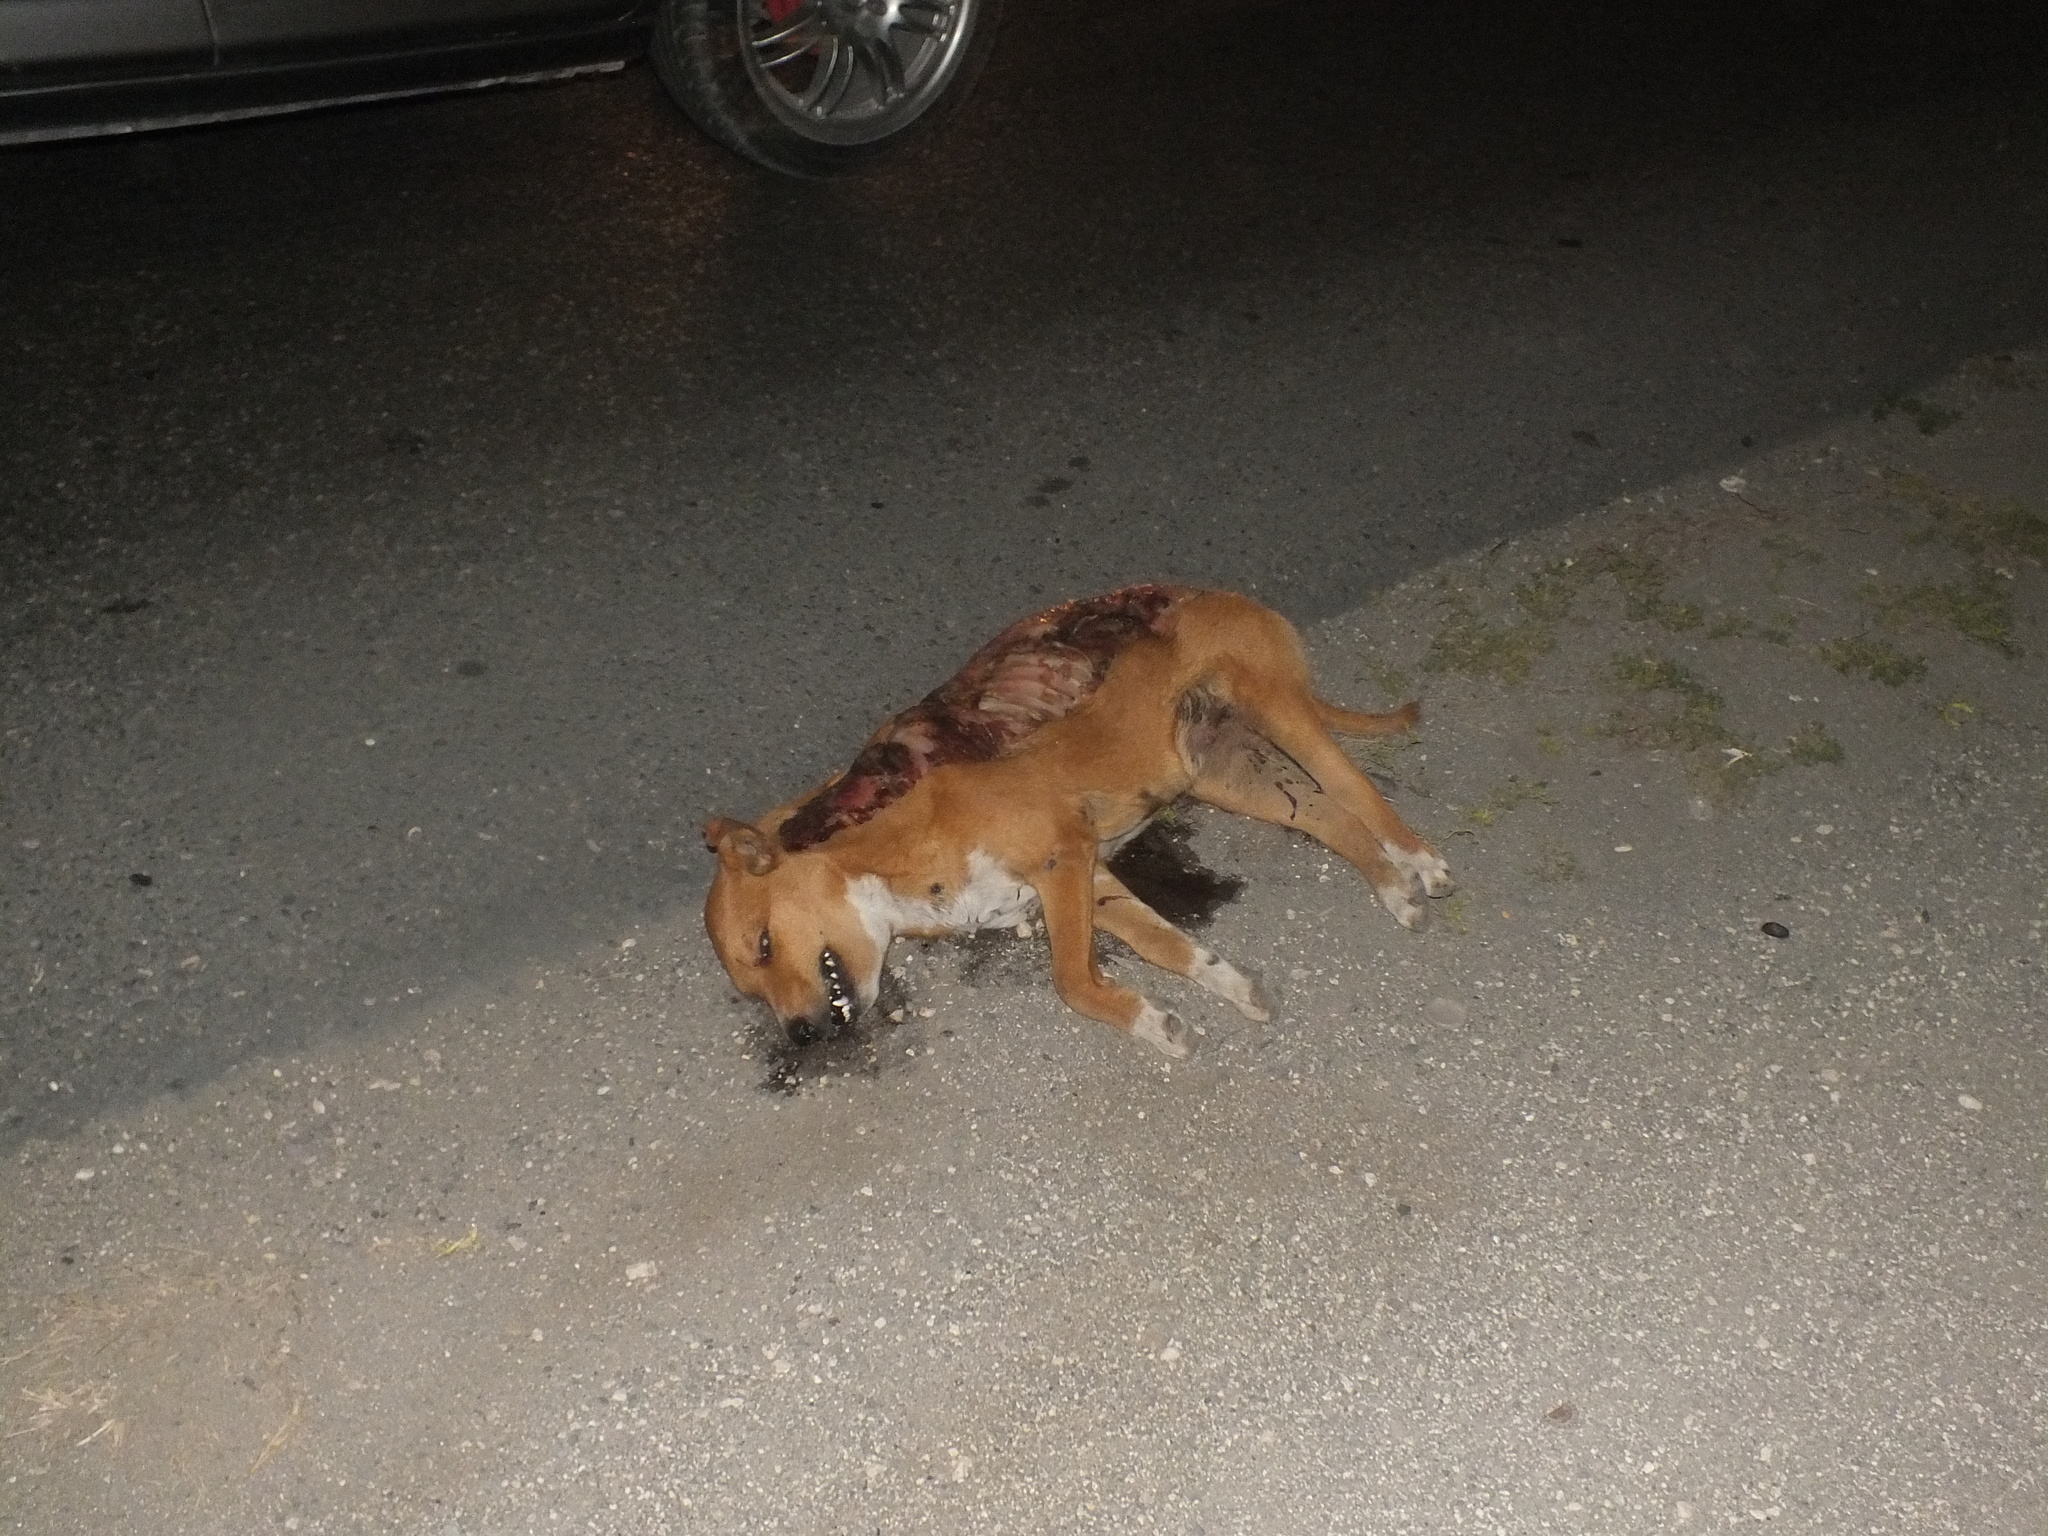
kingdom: Animalia
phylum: Chordata
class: Mammalia
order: Carnivora
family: Canidae
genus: Canis
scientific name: Canis lupus
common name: Gray wolf
